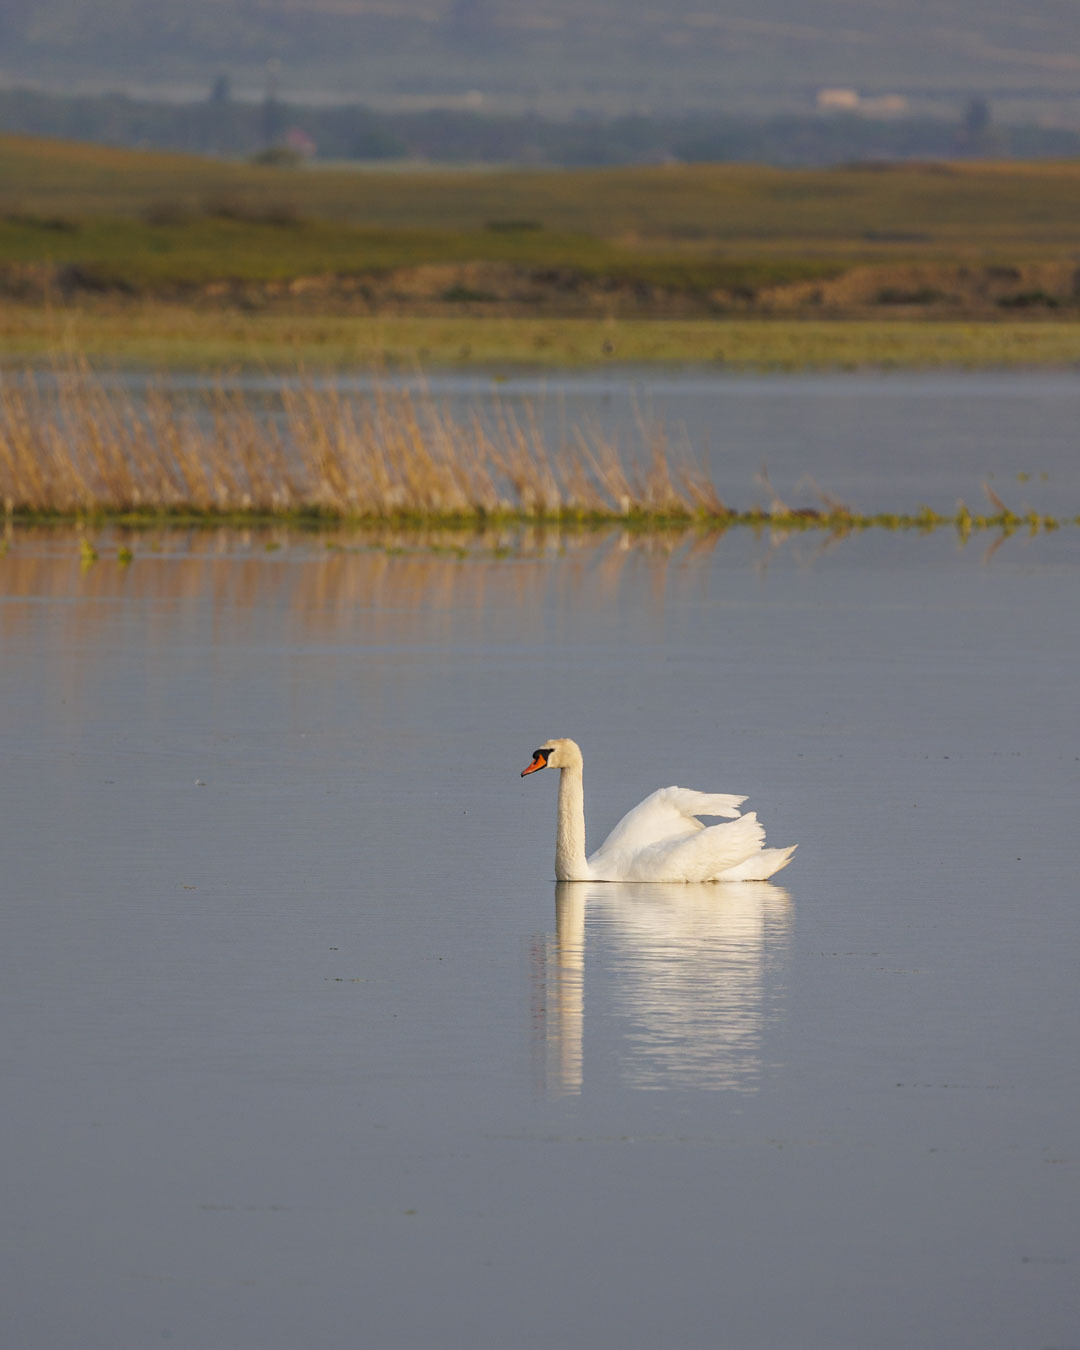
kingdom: Animalia
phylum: Chordata
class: Aves
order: Anseriformes
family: Anatidae
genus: Cygnus
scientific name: Cygnus olor
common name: Mute swan
